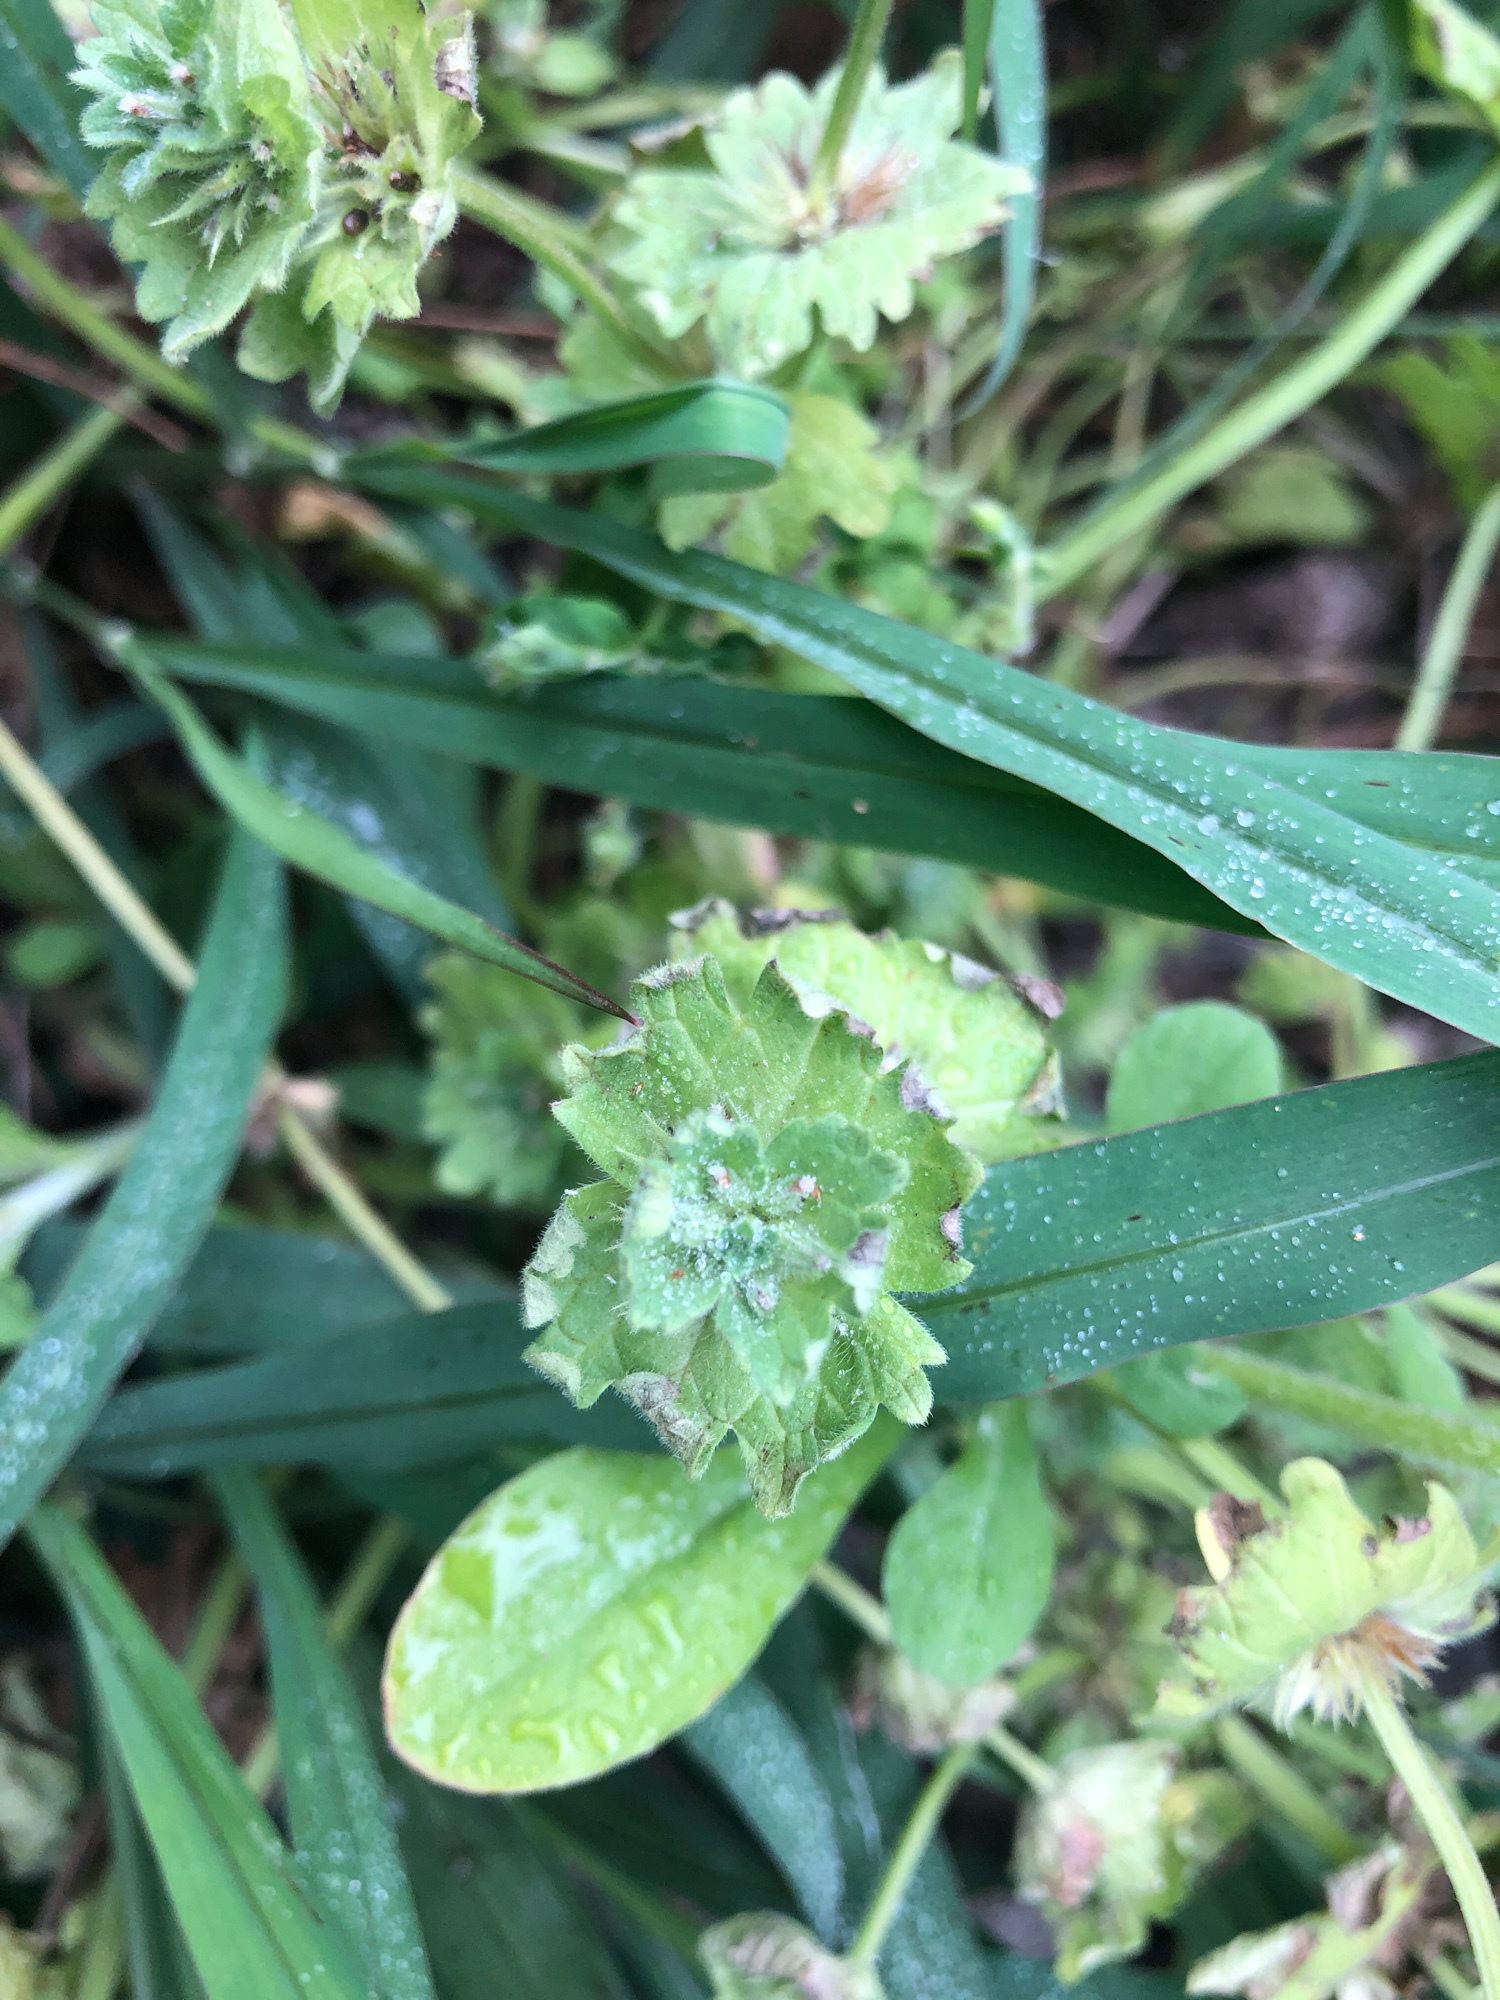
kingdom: Plantae
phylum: Tracheophyta
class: Magnoliopsida
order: Lamiales
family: Lamiaceae
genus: Lamium
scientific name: Lamium amplexicaule
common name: Henbit dead-nettle
